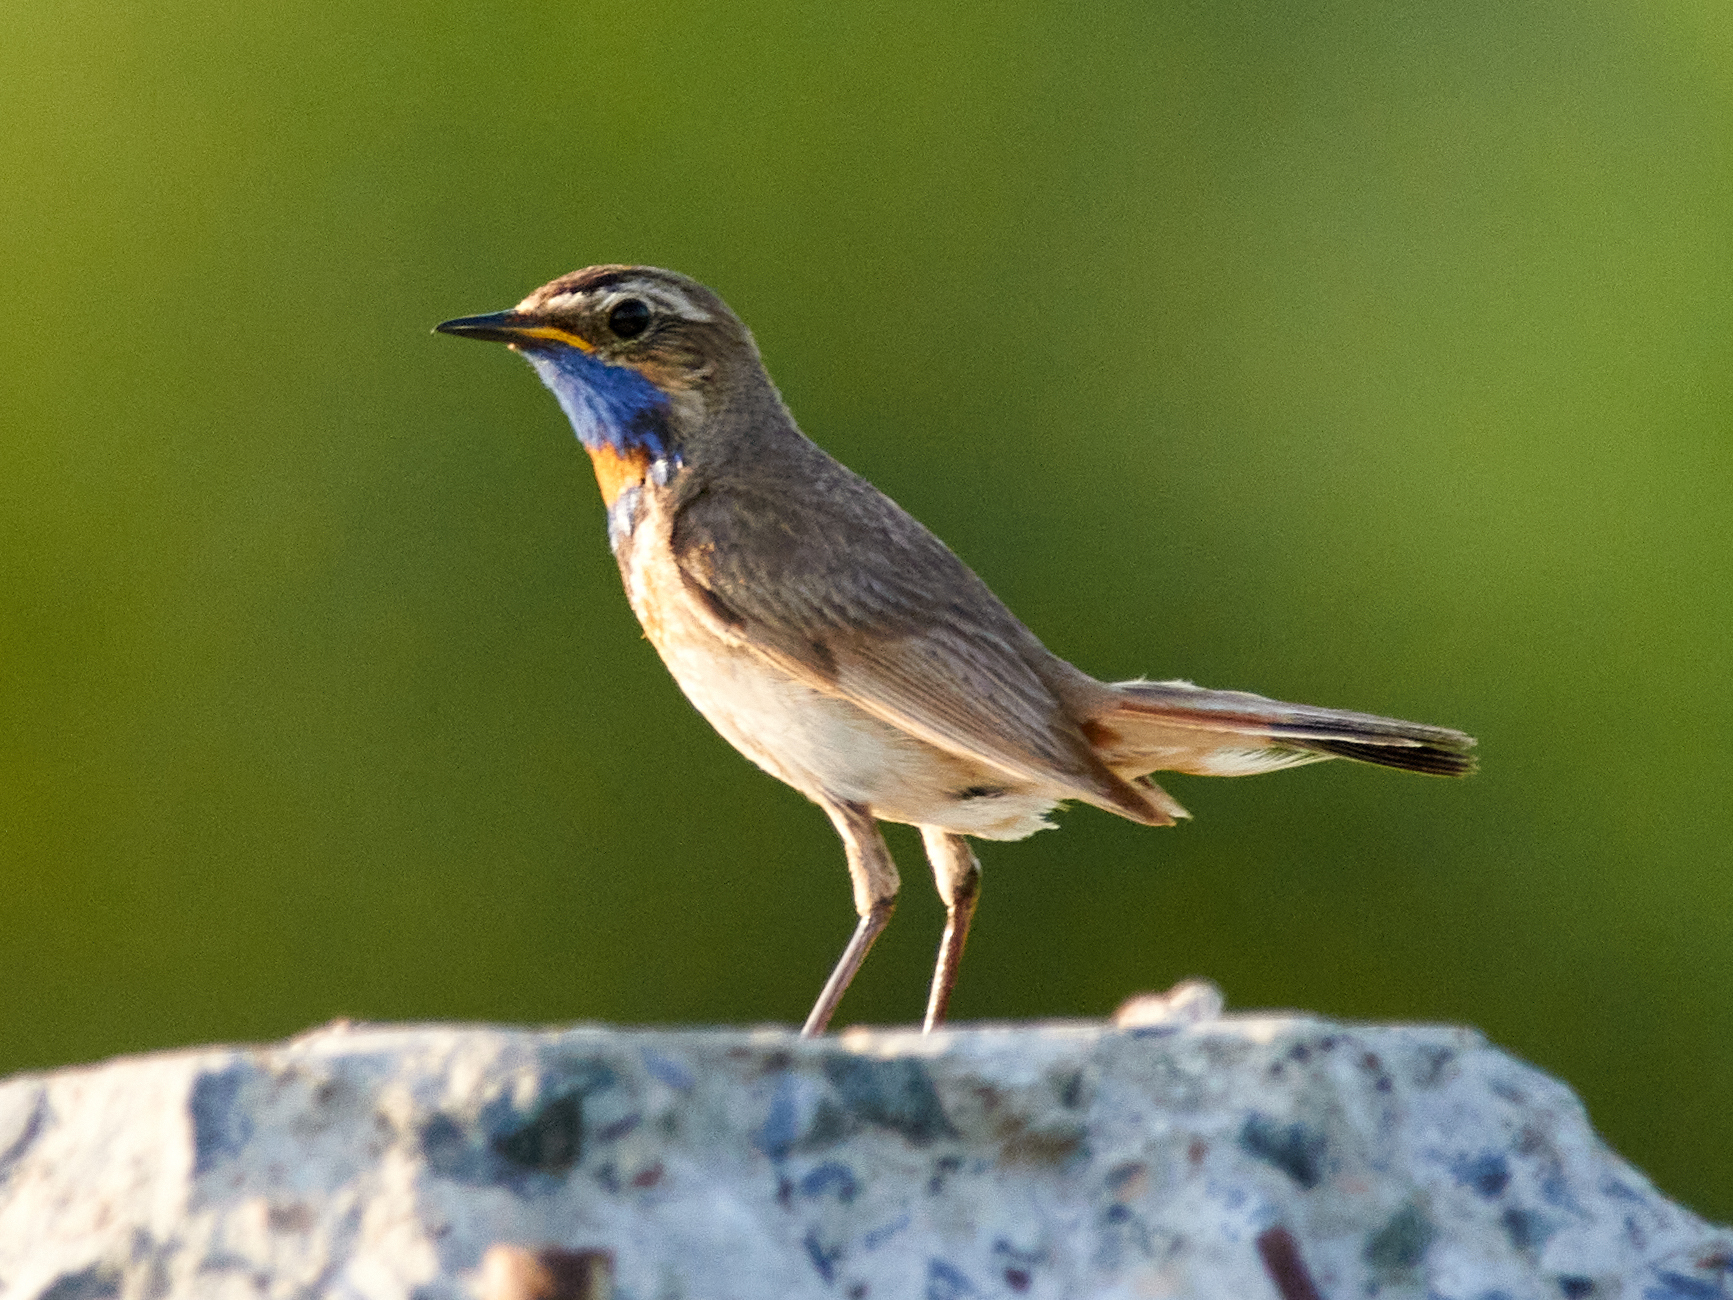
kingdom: Animalia
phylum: Chordata
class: Aves
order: Passeriformes
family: Muscicapidae
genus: Luscinia
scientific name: Luscinia svecica
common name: Bluethroat
